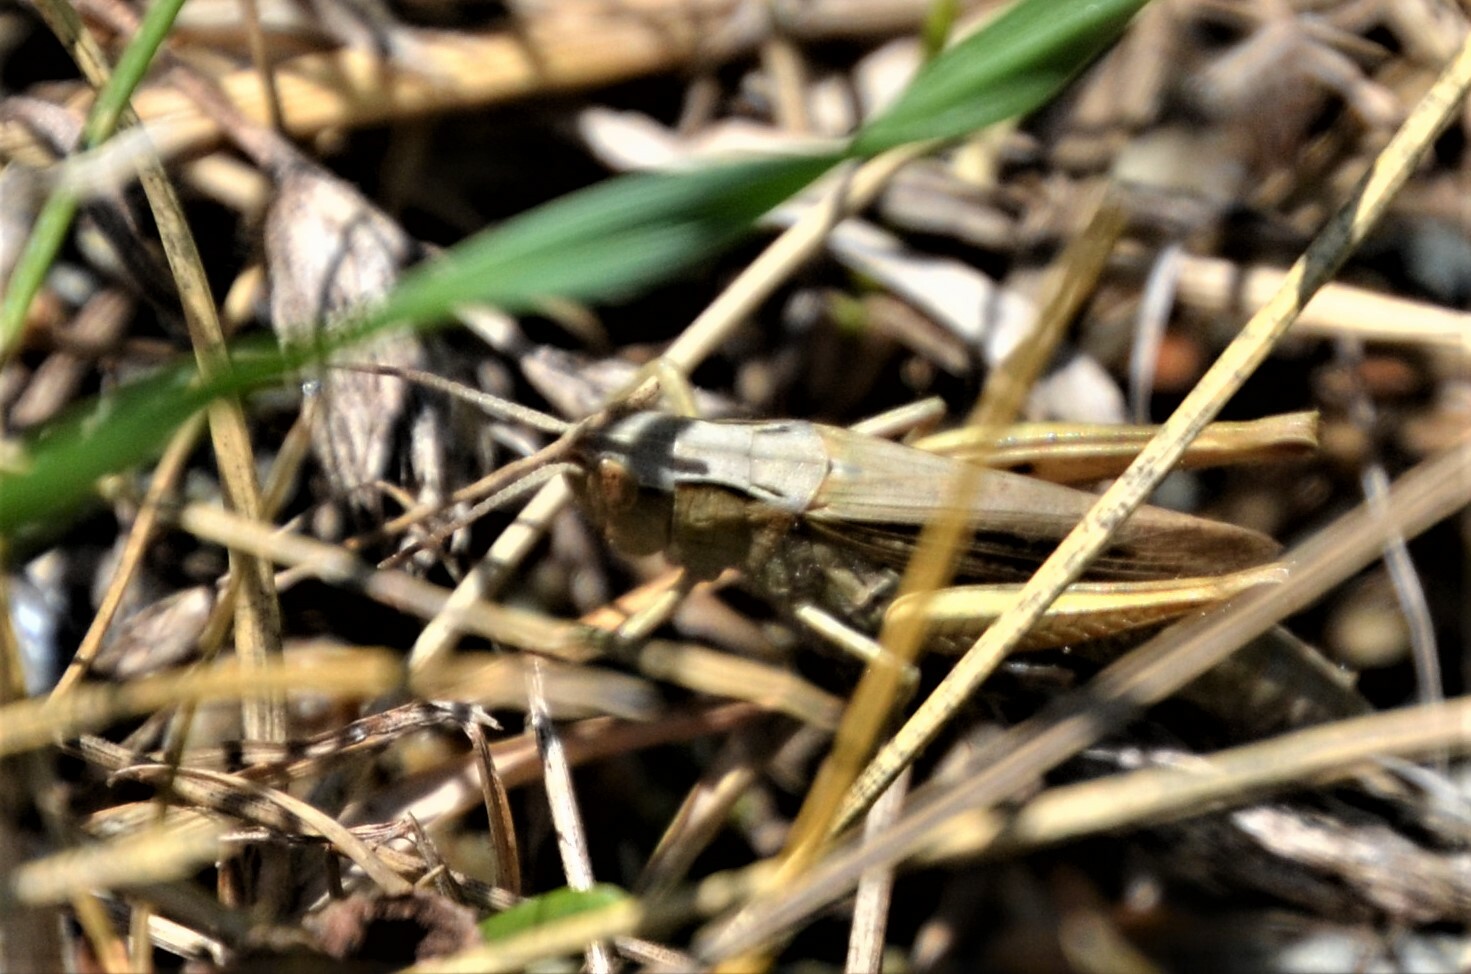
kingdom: Animalia
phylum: Arthropoda
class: Insecta
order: Orthoptera
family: Acrididae
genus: Chorthippus
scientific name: Chorthippus dorsatus
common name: Steppe grasshopper
